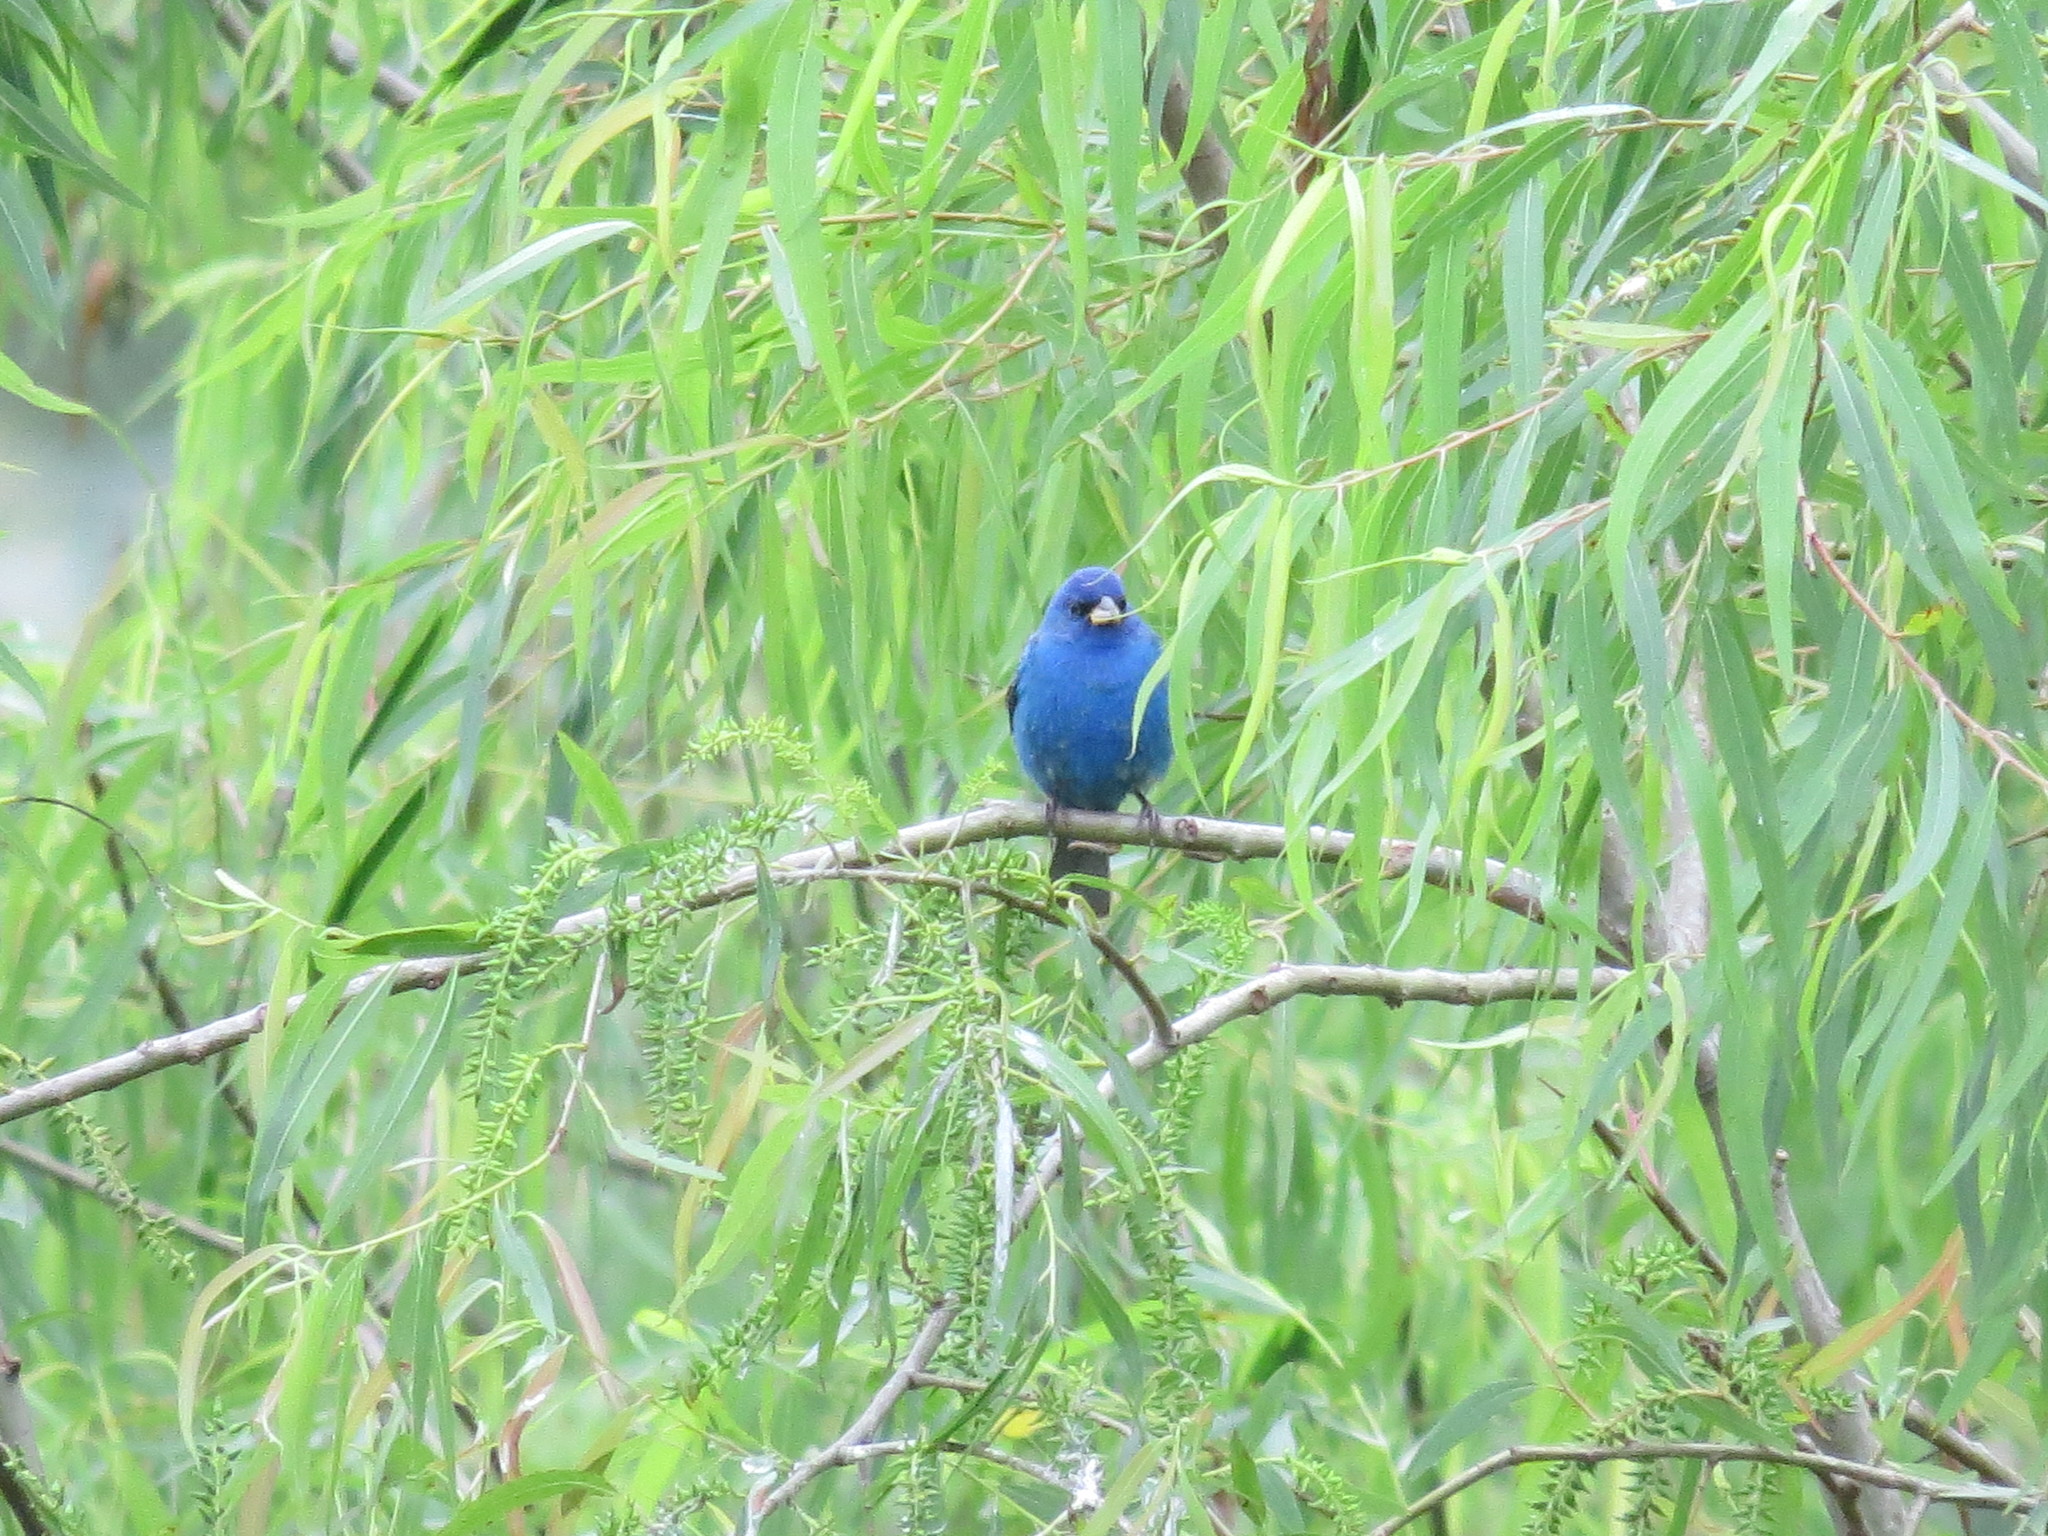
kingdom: Animalia
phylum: Chordata
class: Aves
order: Passeriformes
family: Cardinalidae
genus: Passerina
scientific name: Passerina cyanea
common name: Indigo bunting
